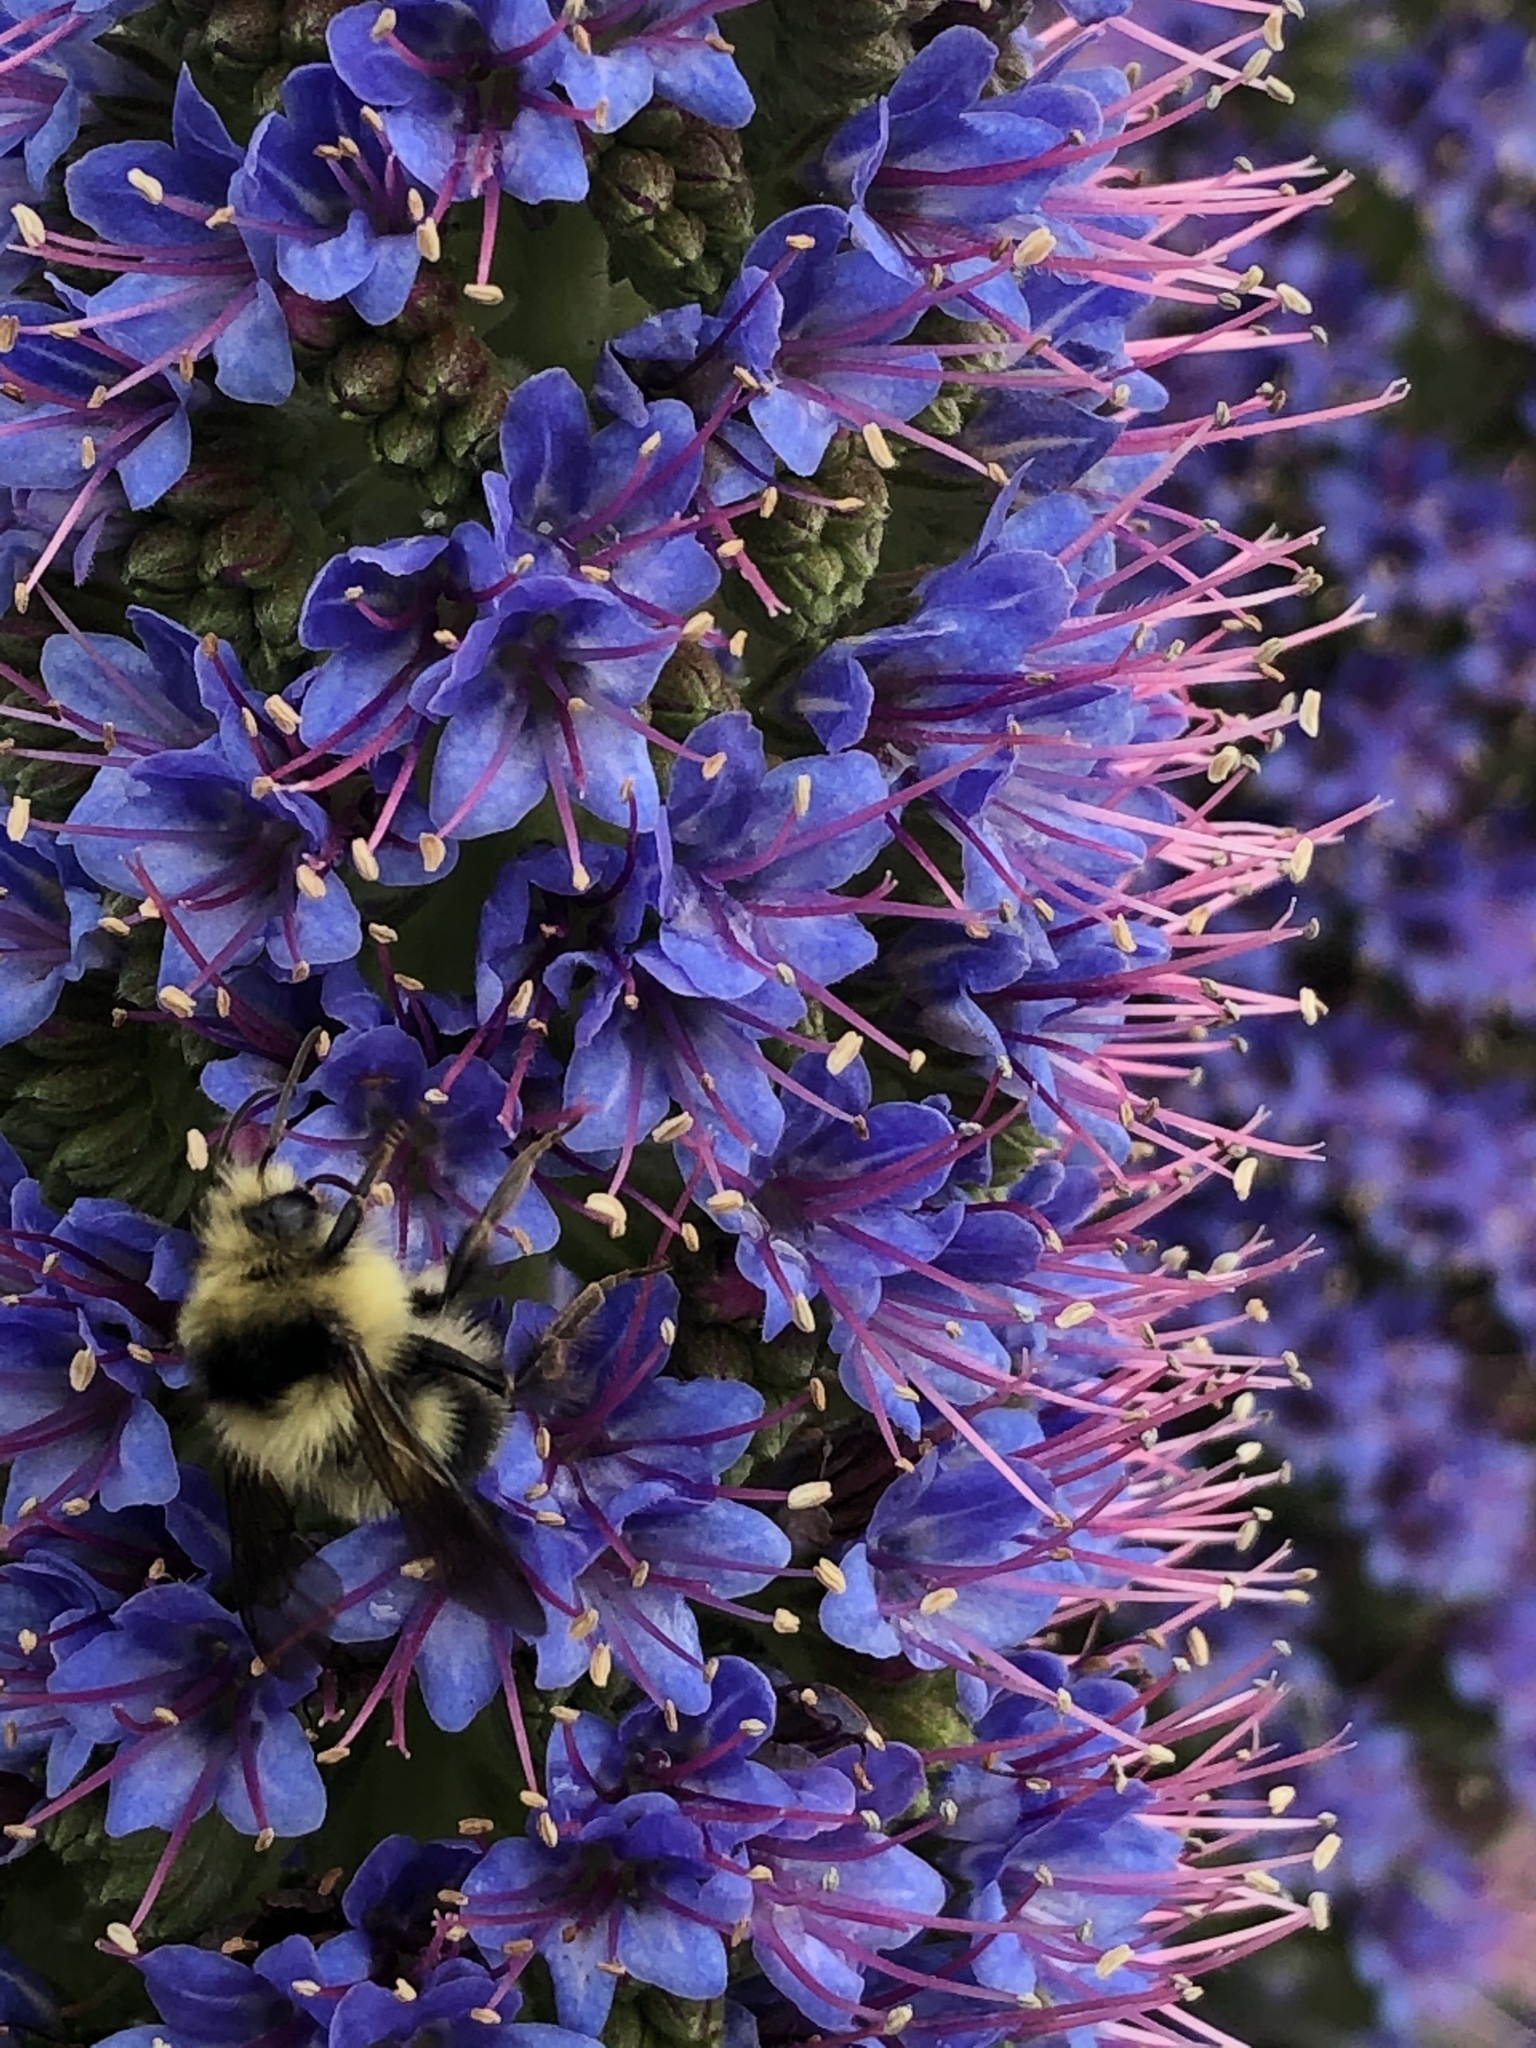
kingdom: Animalia
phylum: Arthropoda
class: Insecta
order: Hymenoptera
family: Apidae
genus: Bombus
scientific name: Bombus melanopygus
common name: Black tail bumble bee
